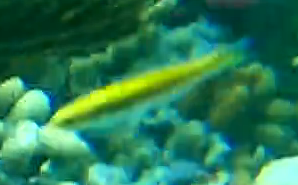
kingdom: Animalia
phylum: Chordata
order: Perciformes
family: Labridae
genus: Thalassoma
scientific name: Thalassoma bifasciatum
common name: Bluehead wrasse
